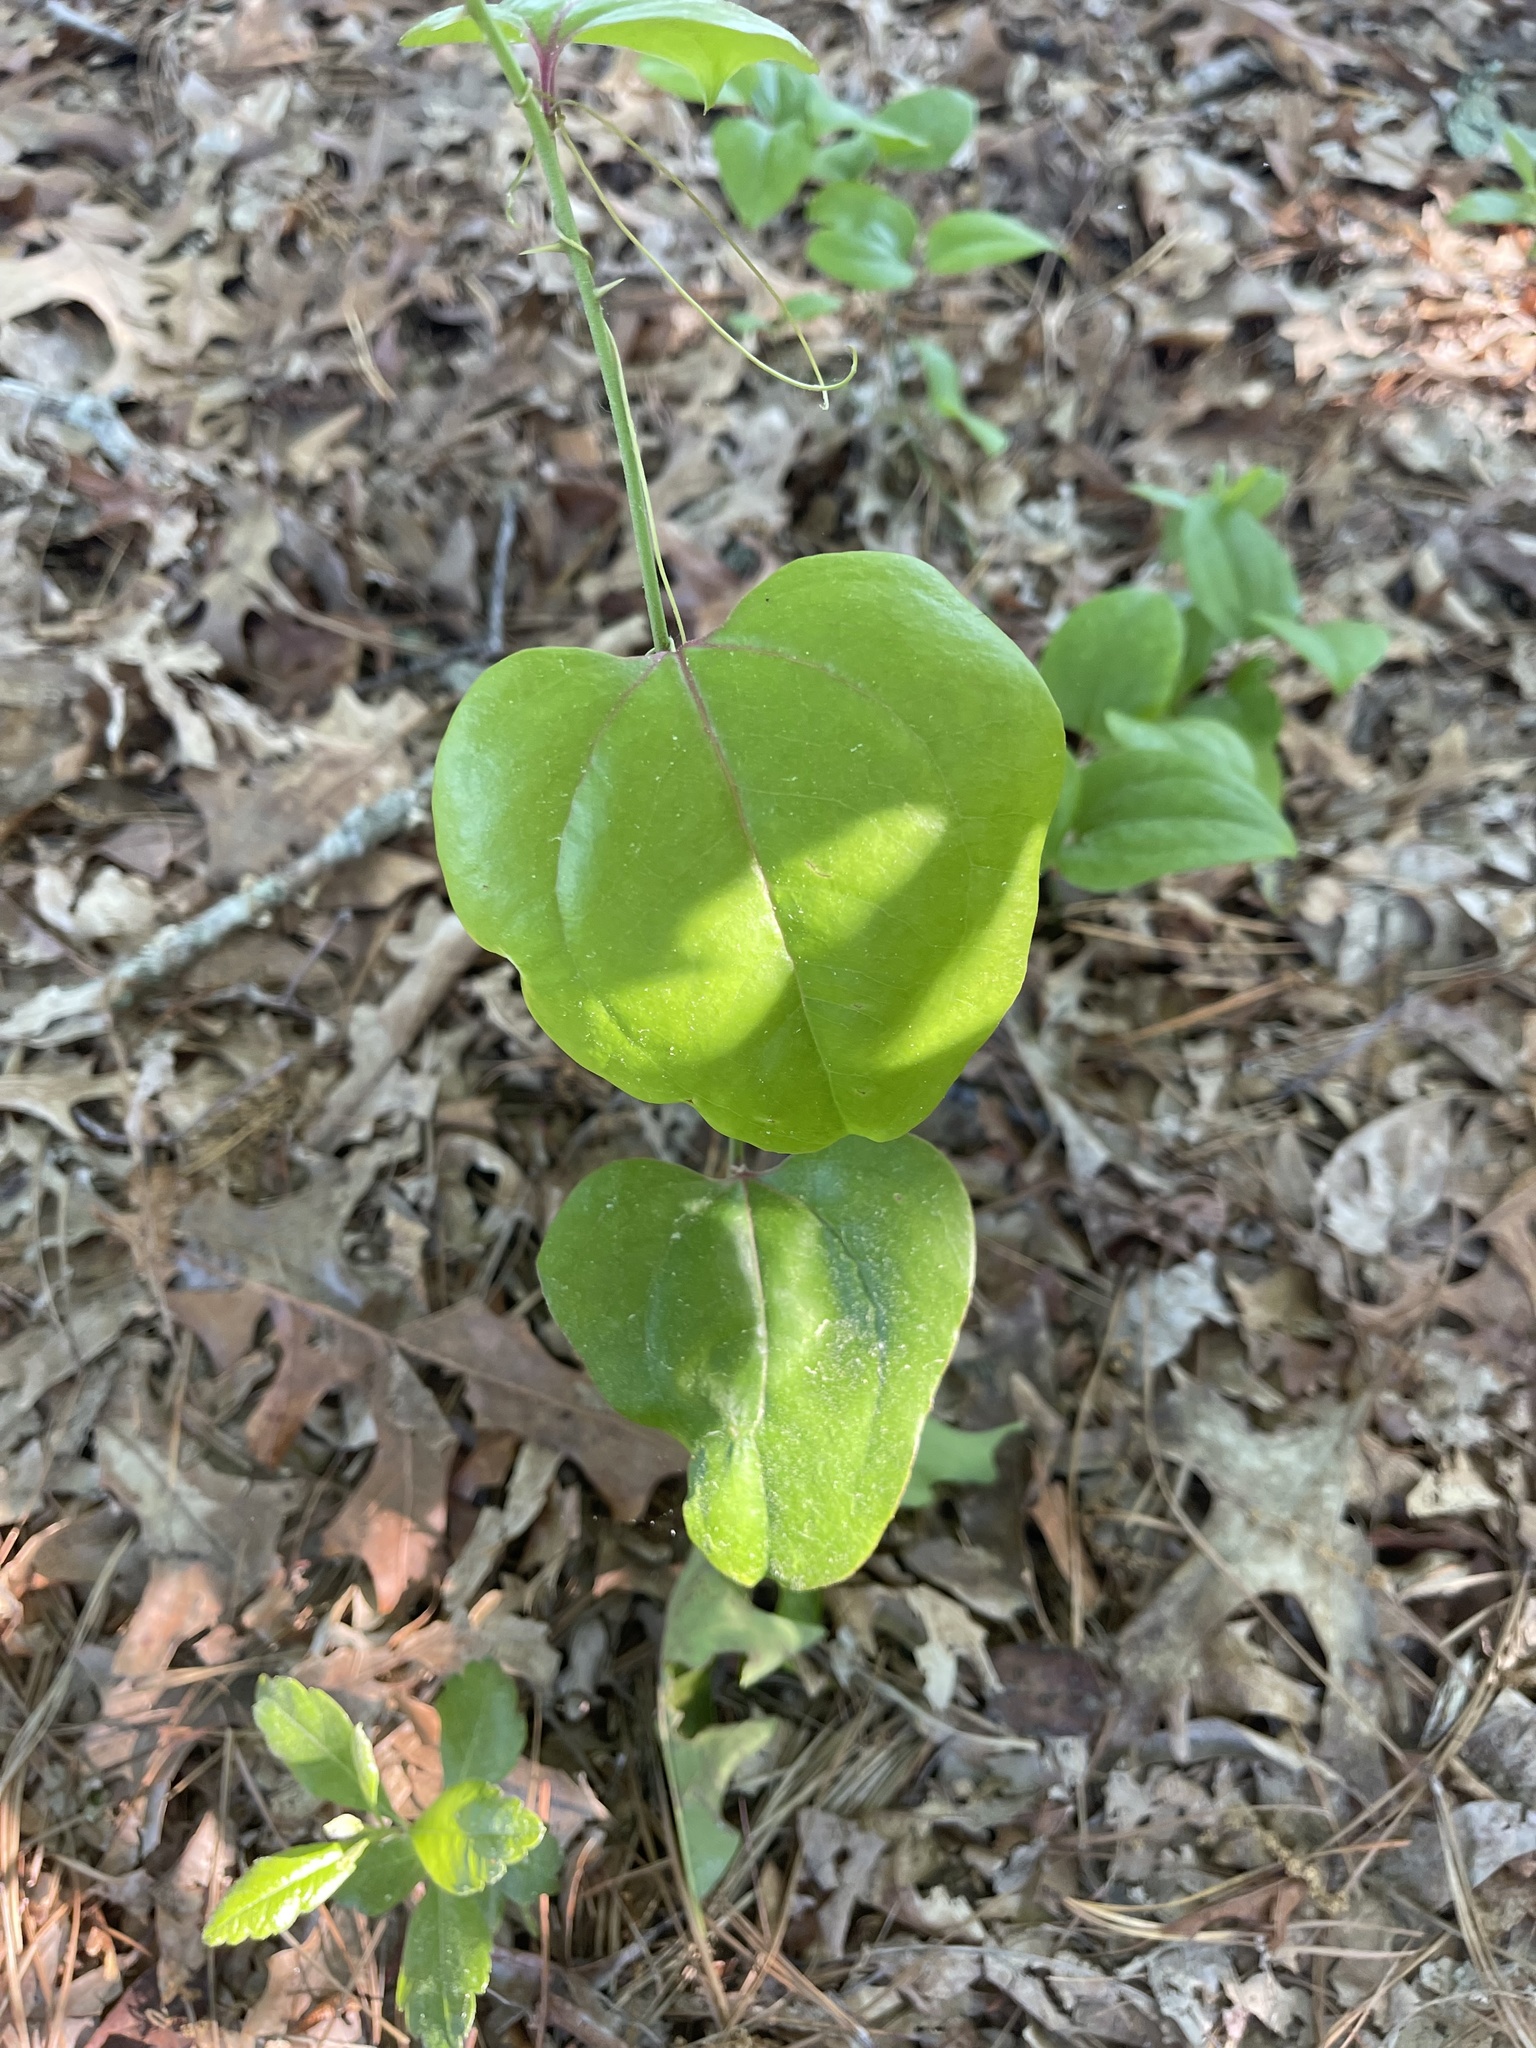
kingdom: Plantae
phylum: Tracheophyta
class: Liliopsida
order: Liliales
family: Smilacaceae
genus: Smilax
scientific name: Smilax rotundifolia
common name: Bullbriar
